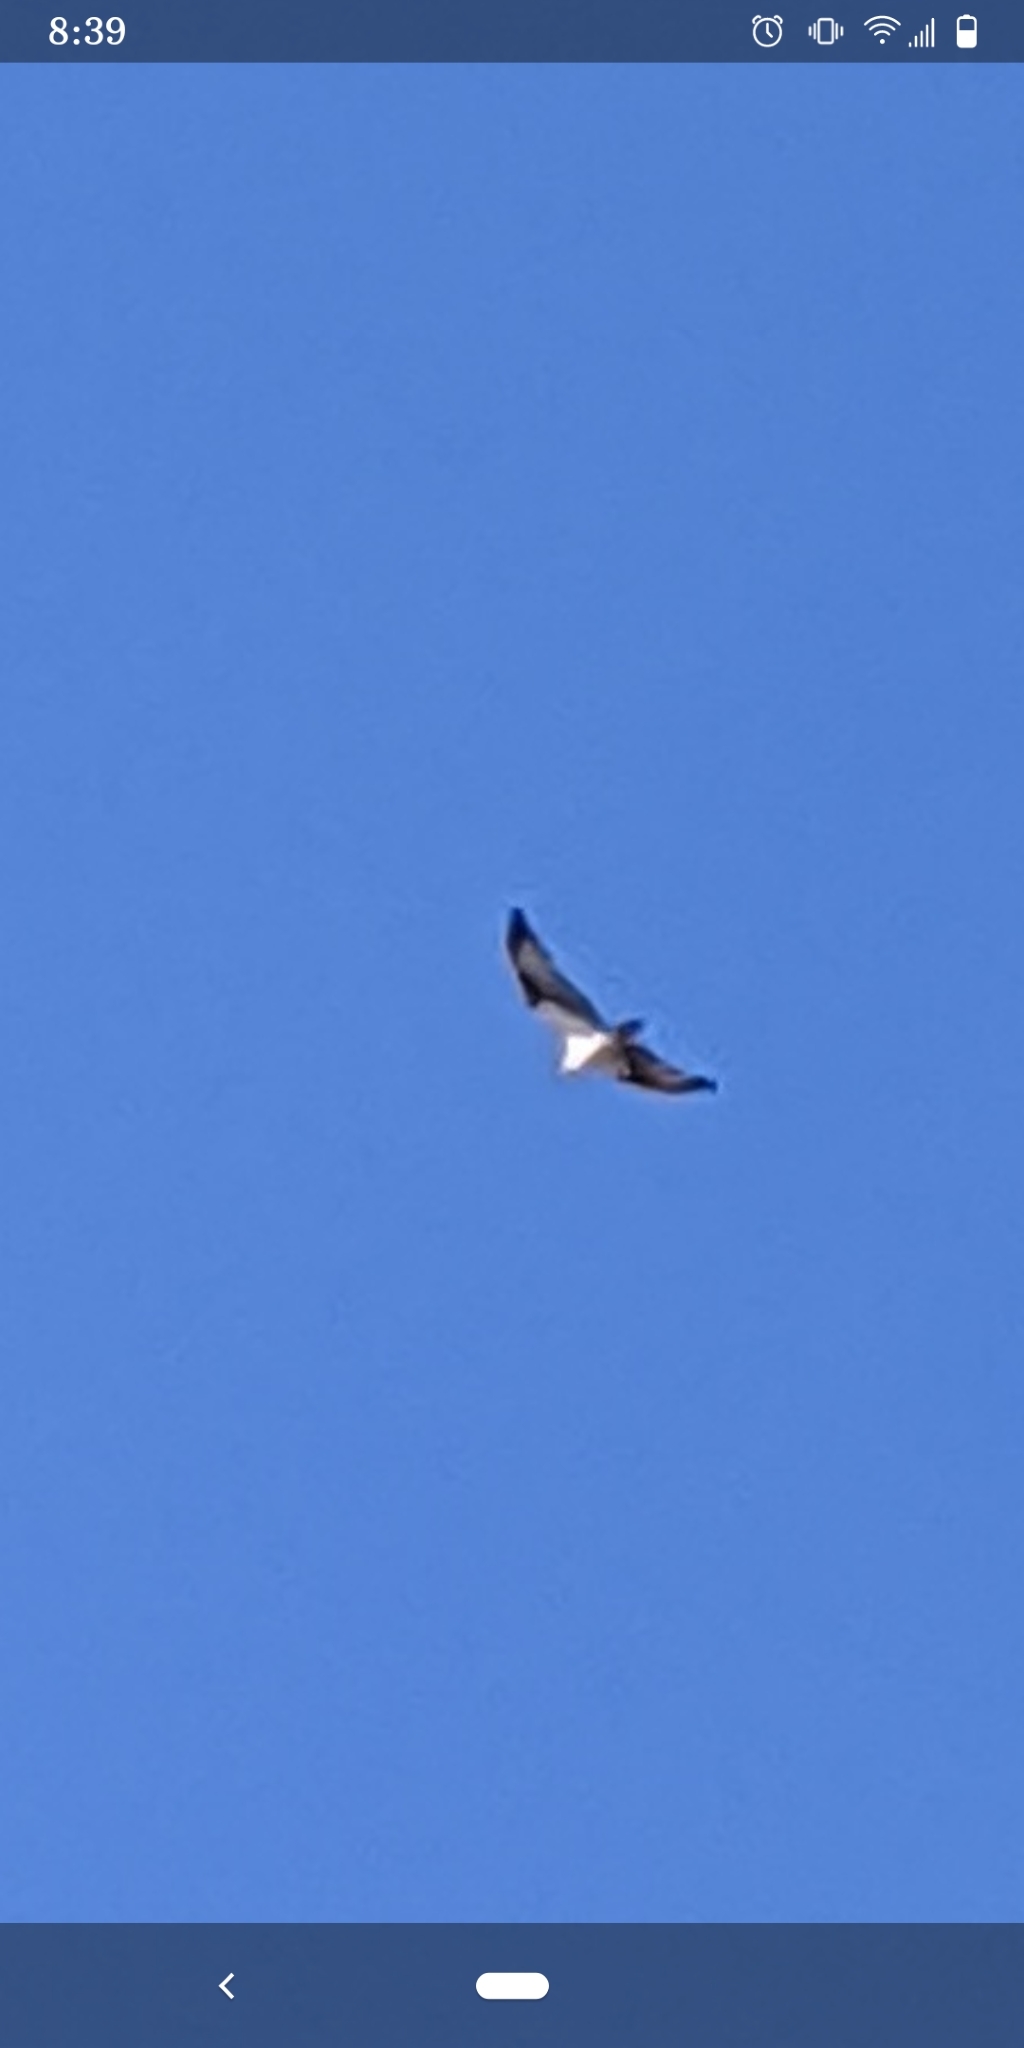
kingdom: Animalia
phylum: Chordata
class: Aves
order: Accipitriformes
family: Pandionidae
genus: Pandion
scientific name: Pandion haliaetus
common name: Osprey
